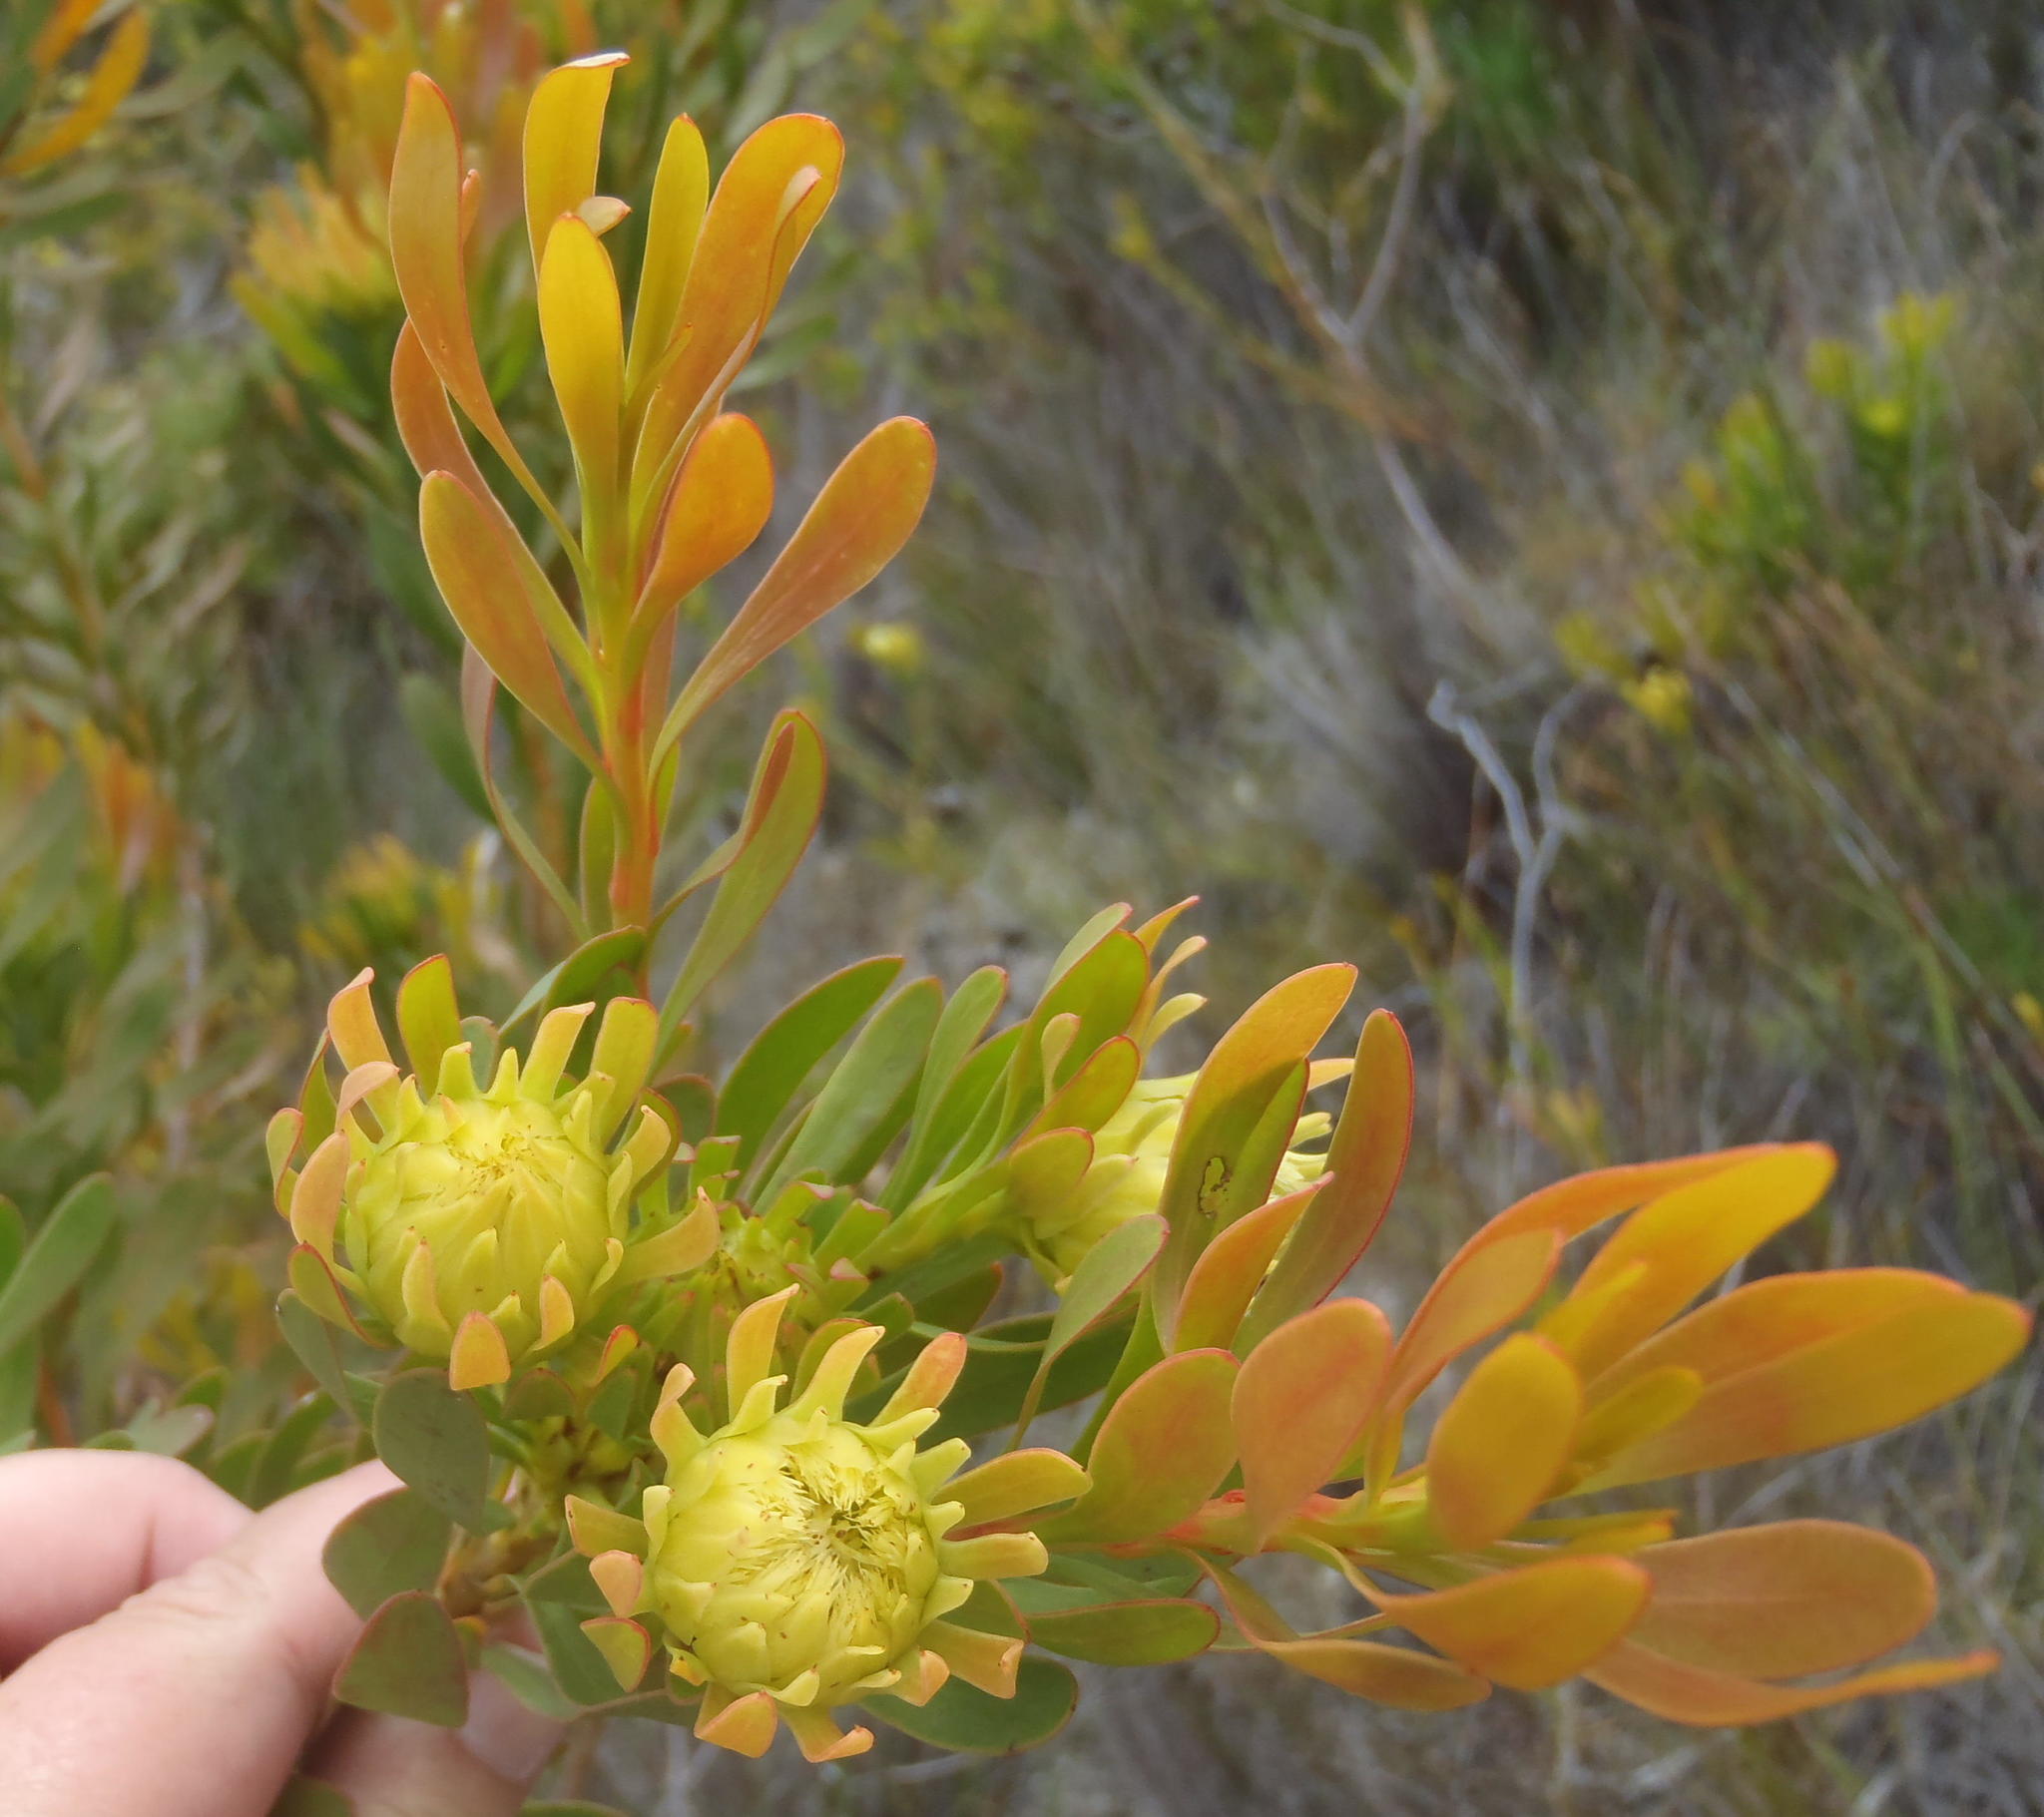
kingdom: Plantae
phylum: Tracheophyta
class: Magnoliopsida
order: Proteales
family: Proteaceae
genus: Aulax
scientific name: Aulax umbellata
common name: Broad-leaf featherbush
